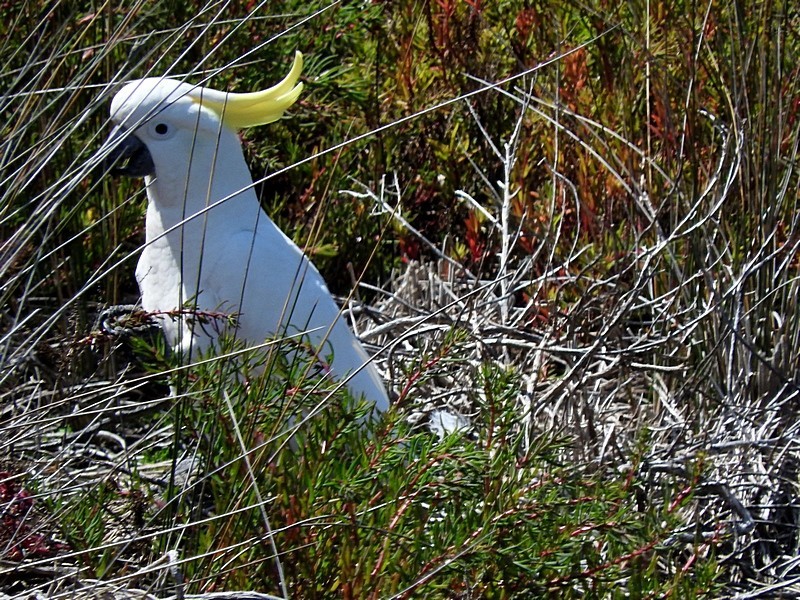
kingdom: Animalia
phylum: Chordata
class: Aves
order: Psittaciformes
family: Psittacidae
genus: Cacatua
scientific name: Cacatua galerita
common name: Sulphur-crested cockatoo
